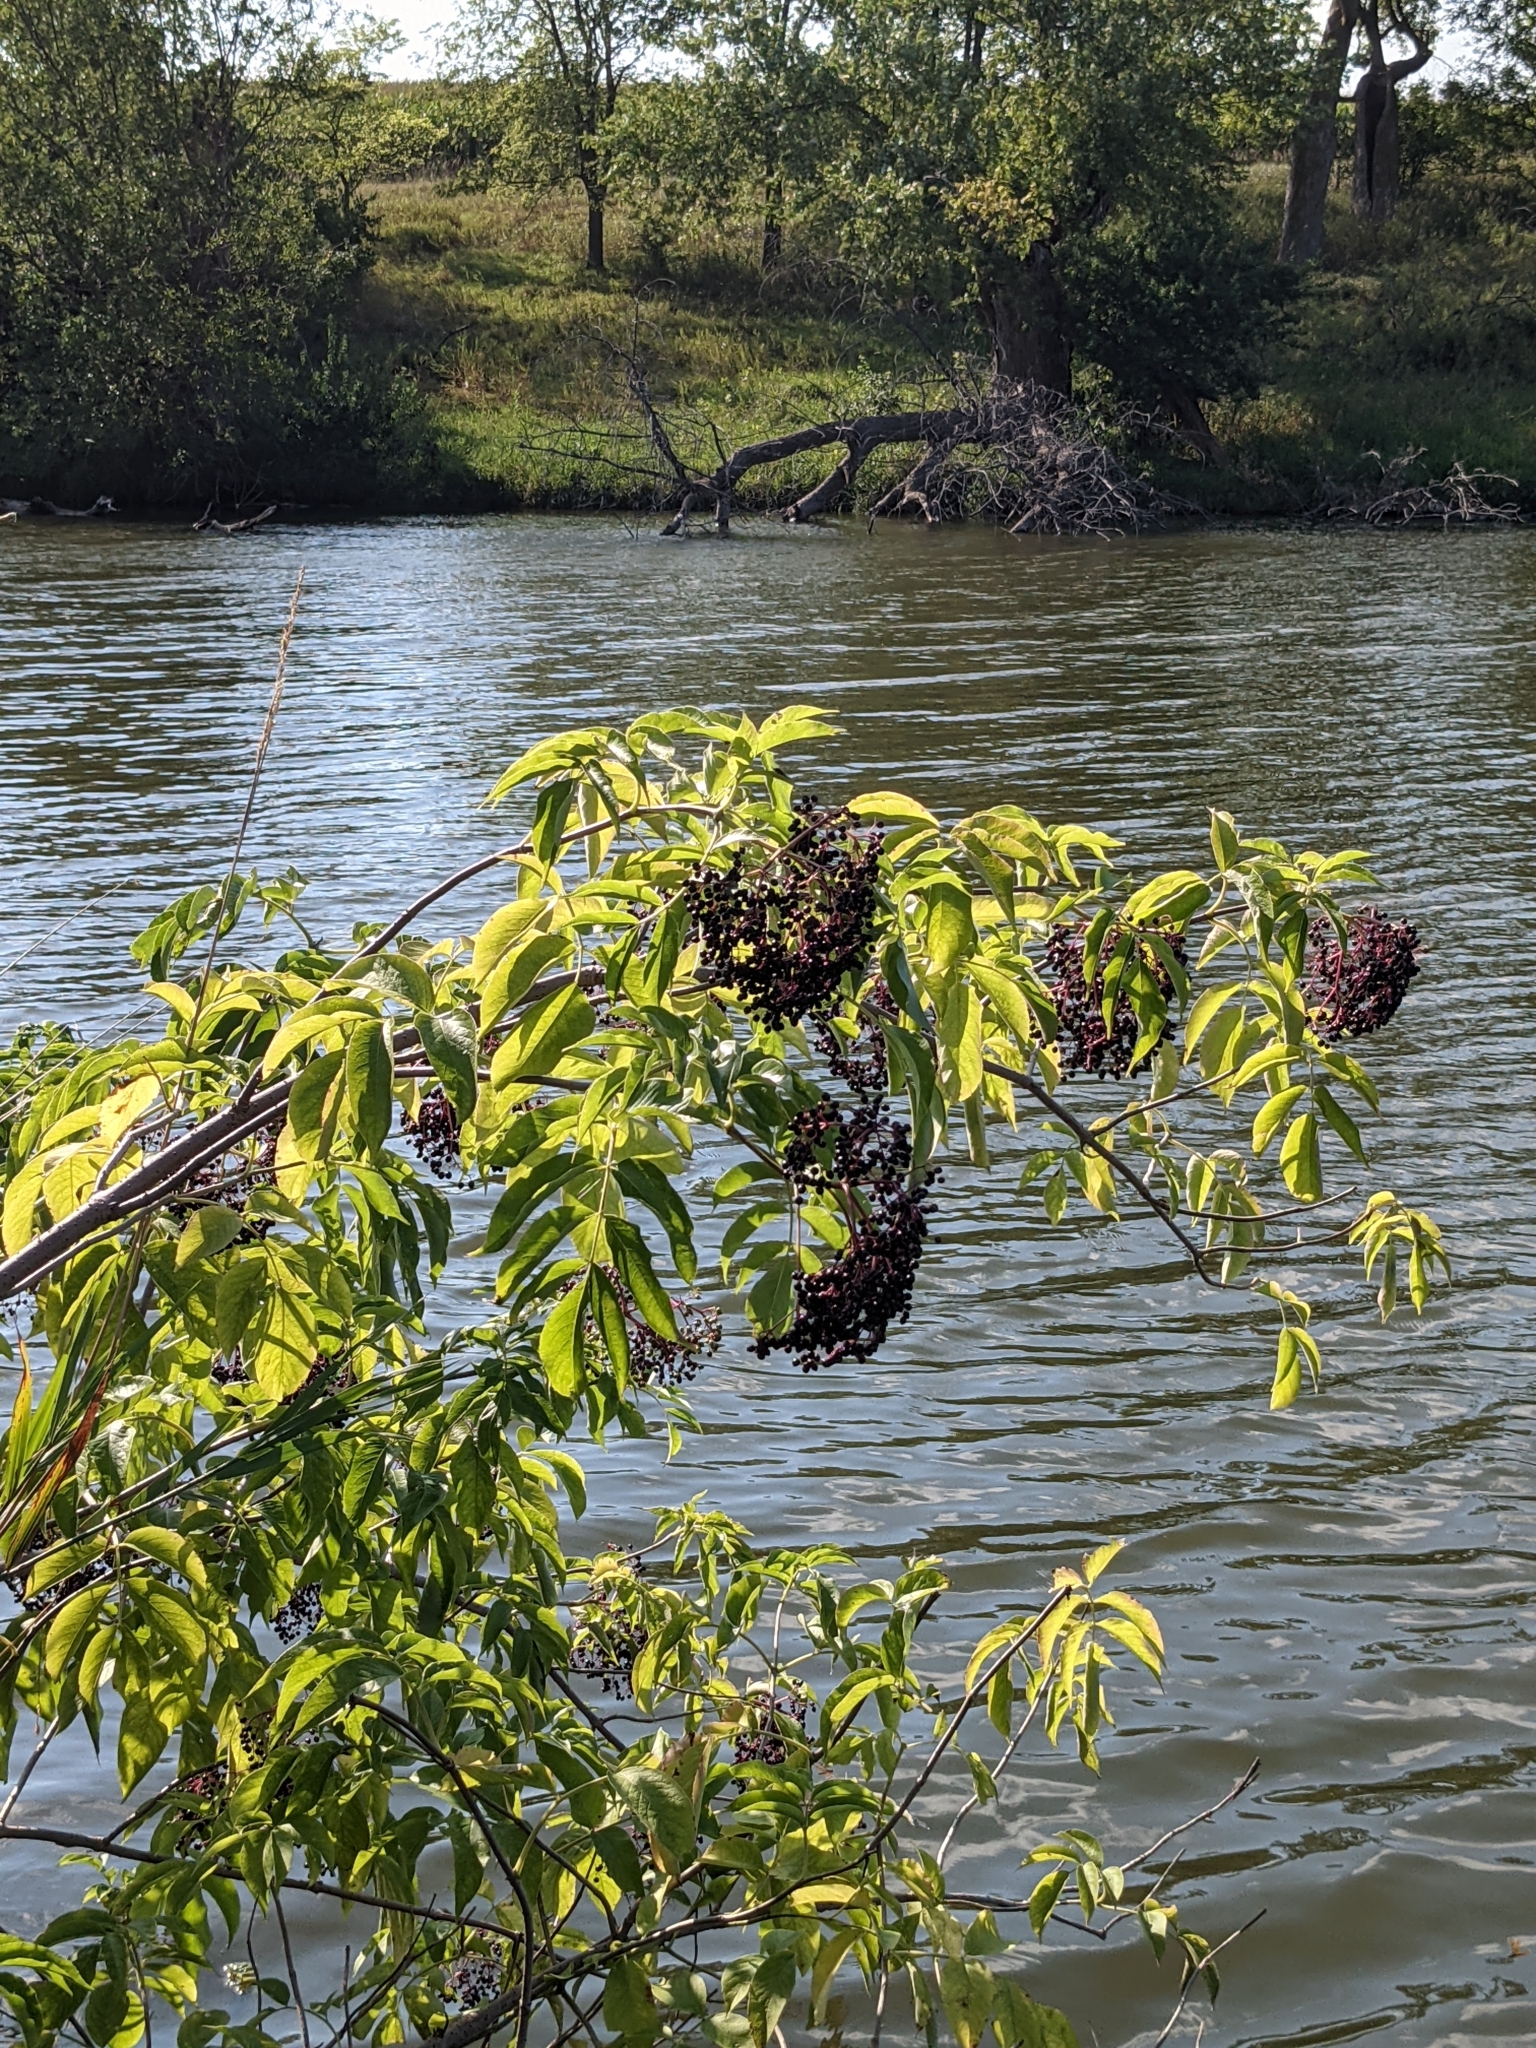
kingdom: Plantae
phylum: Tracheophyta
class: Magnoliopsida
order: Dipsacales
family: Viburnaceae
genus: Sambucus
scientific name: Sambucus canadensis
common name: American elder
